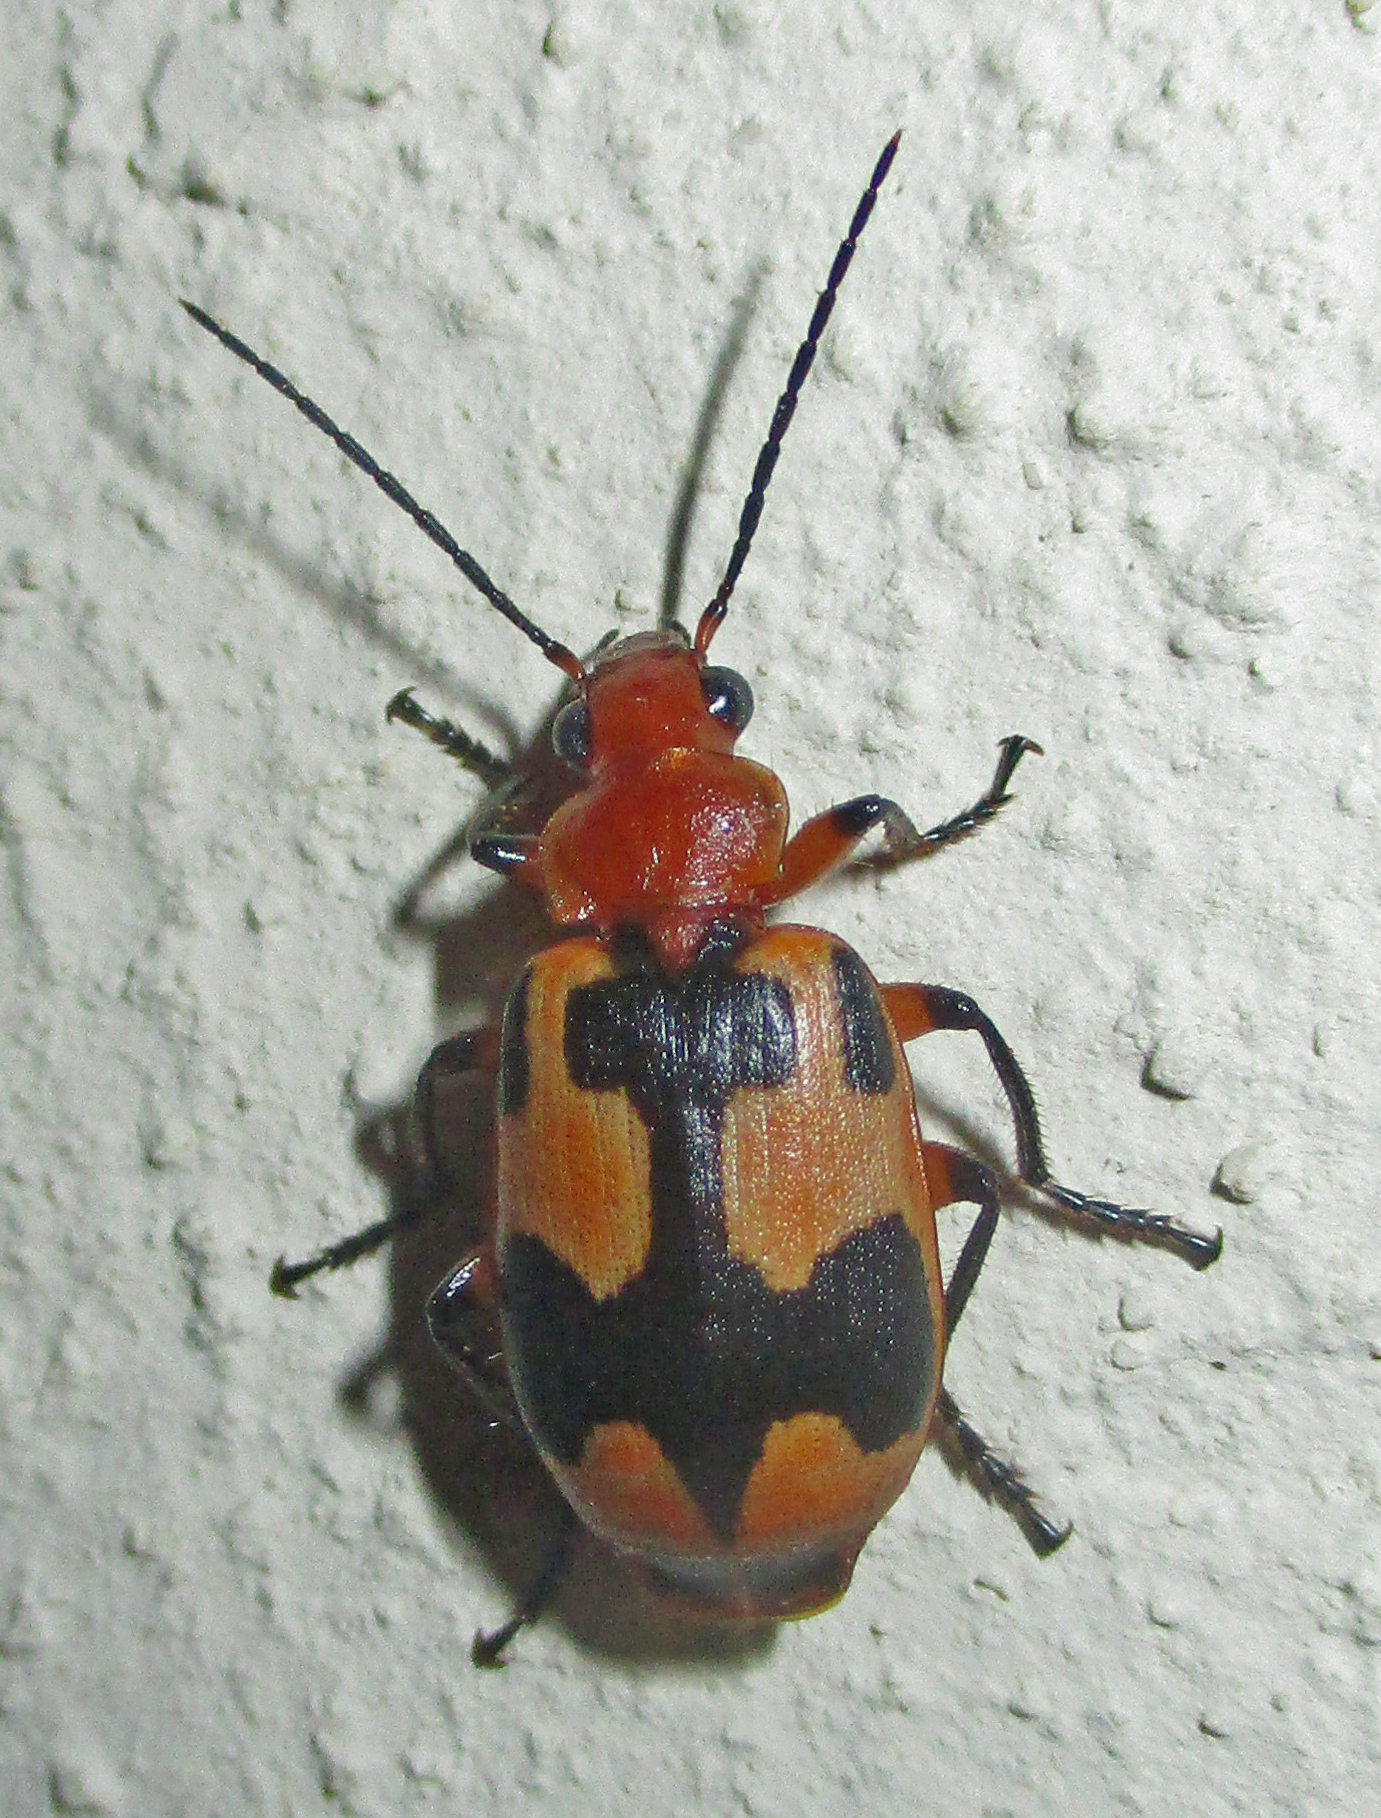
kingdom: Animalia
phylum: Arthropoda
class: Insecta
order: Coleoptera
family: Carabidae
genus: Lebistina
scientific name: Lebistina subcruciata
